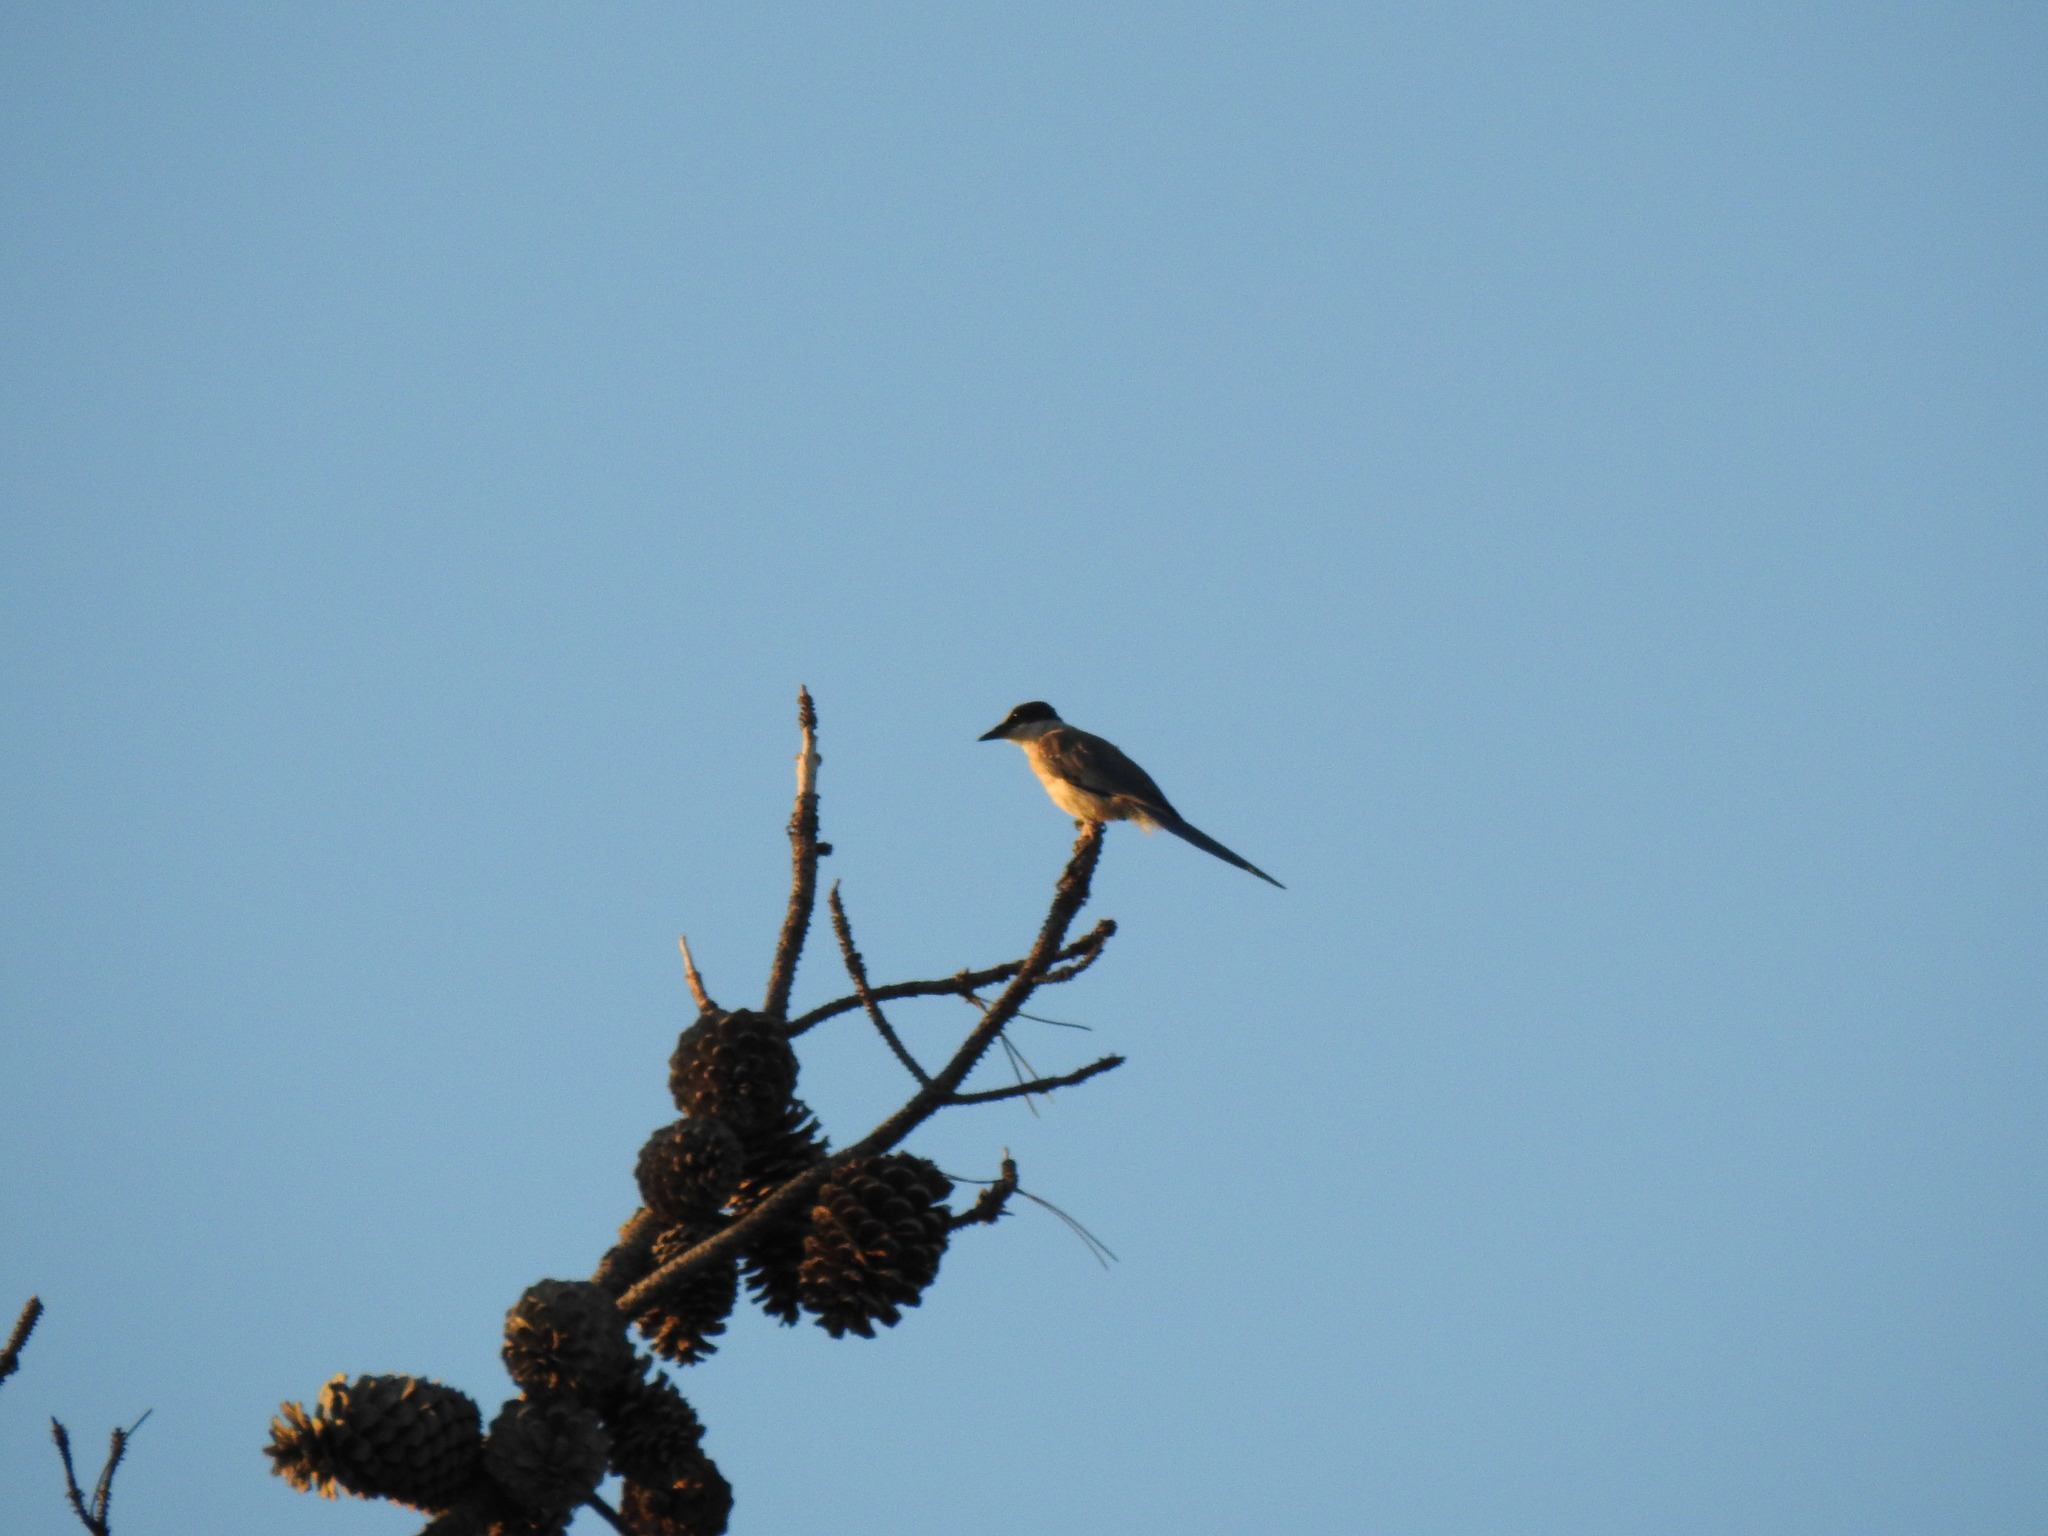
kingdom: Animalia
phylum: Chordata
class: Aves
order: Passeriformes
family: Corvidae
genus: Cyanopica
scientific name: Cyanopica cooki
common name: Iberian magpie
